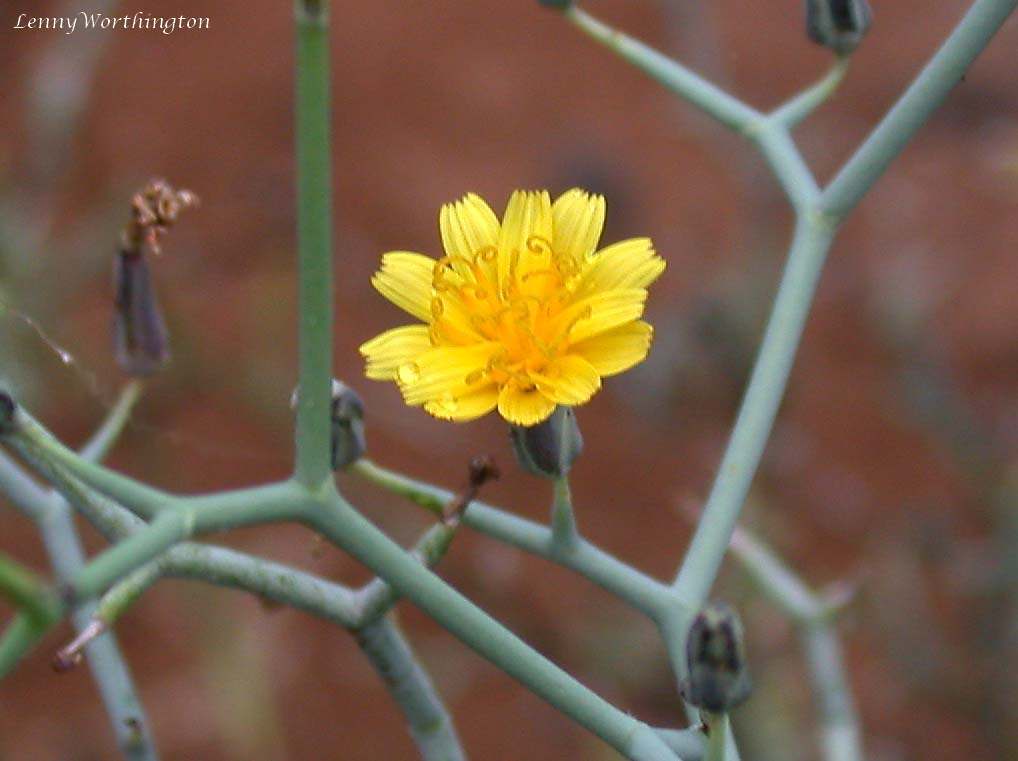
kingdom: Plantae
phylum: Tracheophyta
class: Magnoliopsida
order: Asterales
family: Asteraceae
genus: Launaea
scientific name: Launaea arborescens
